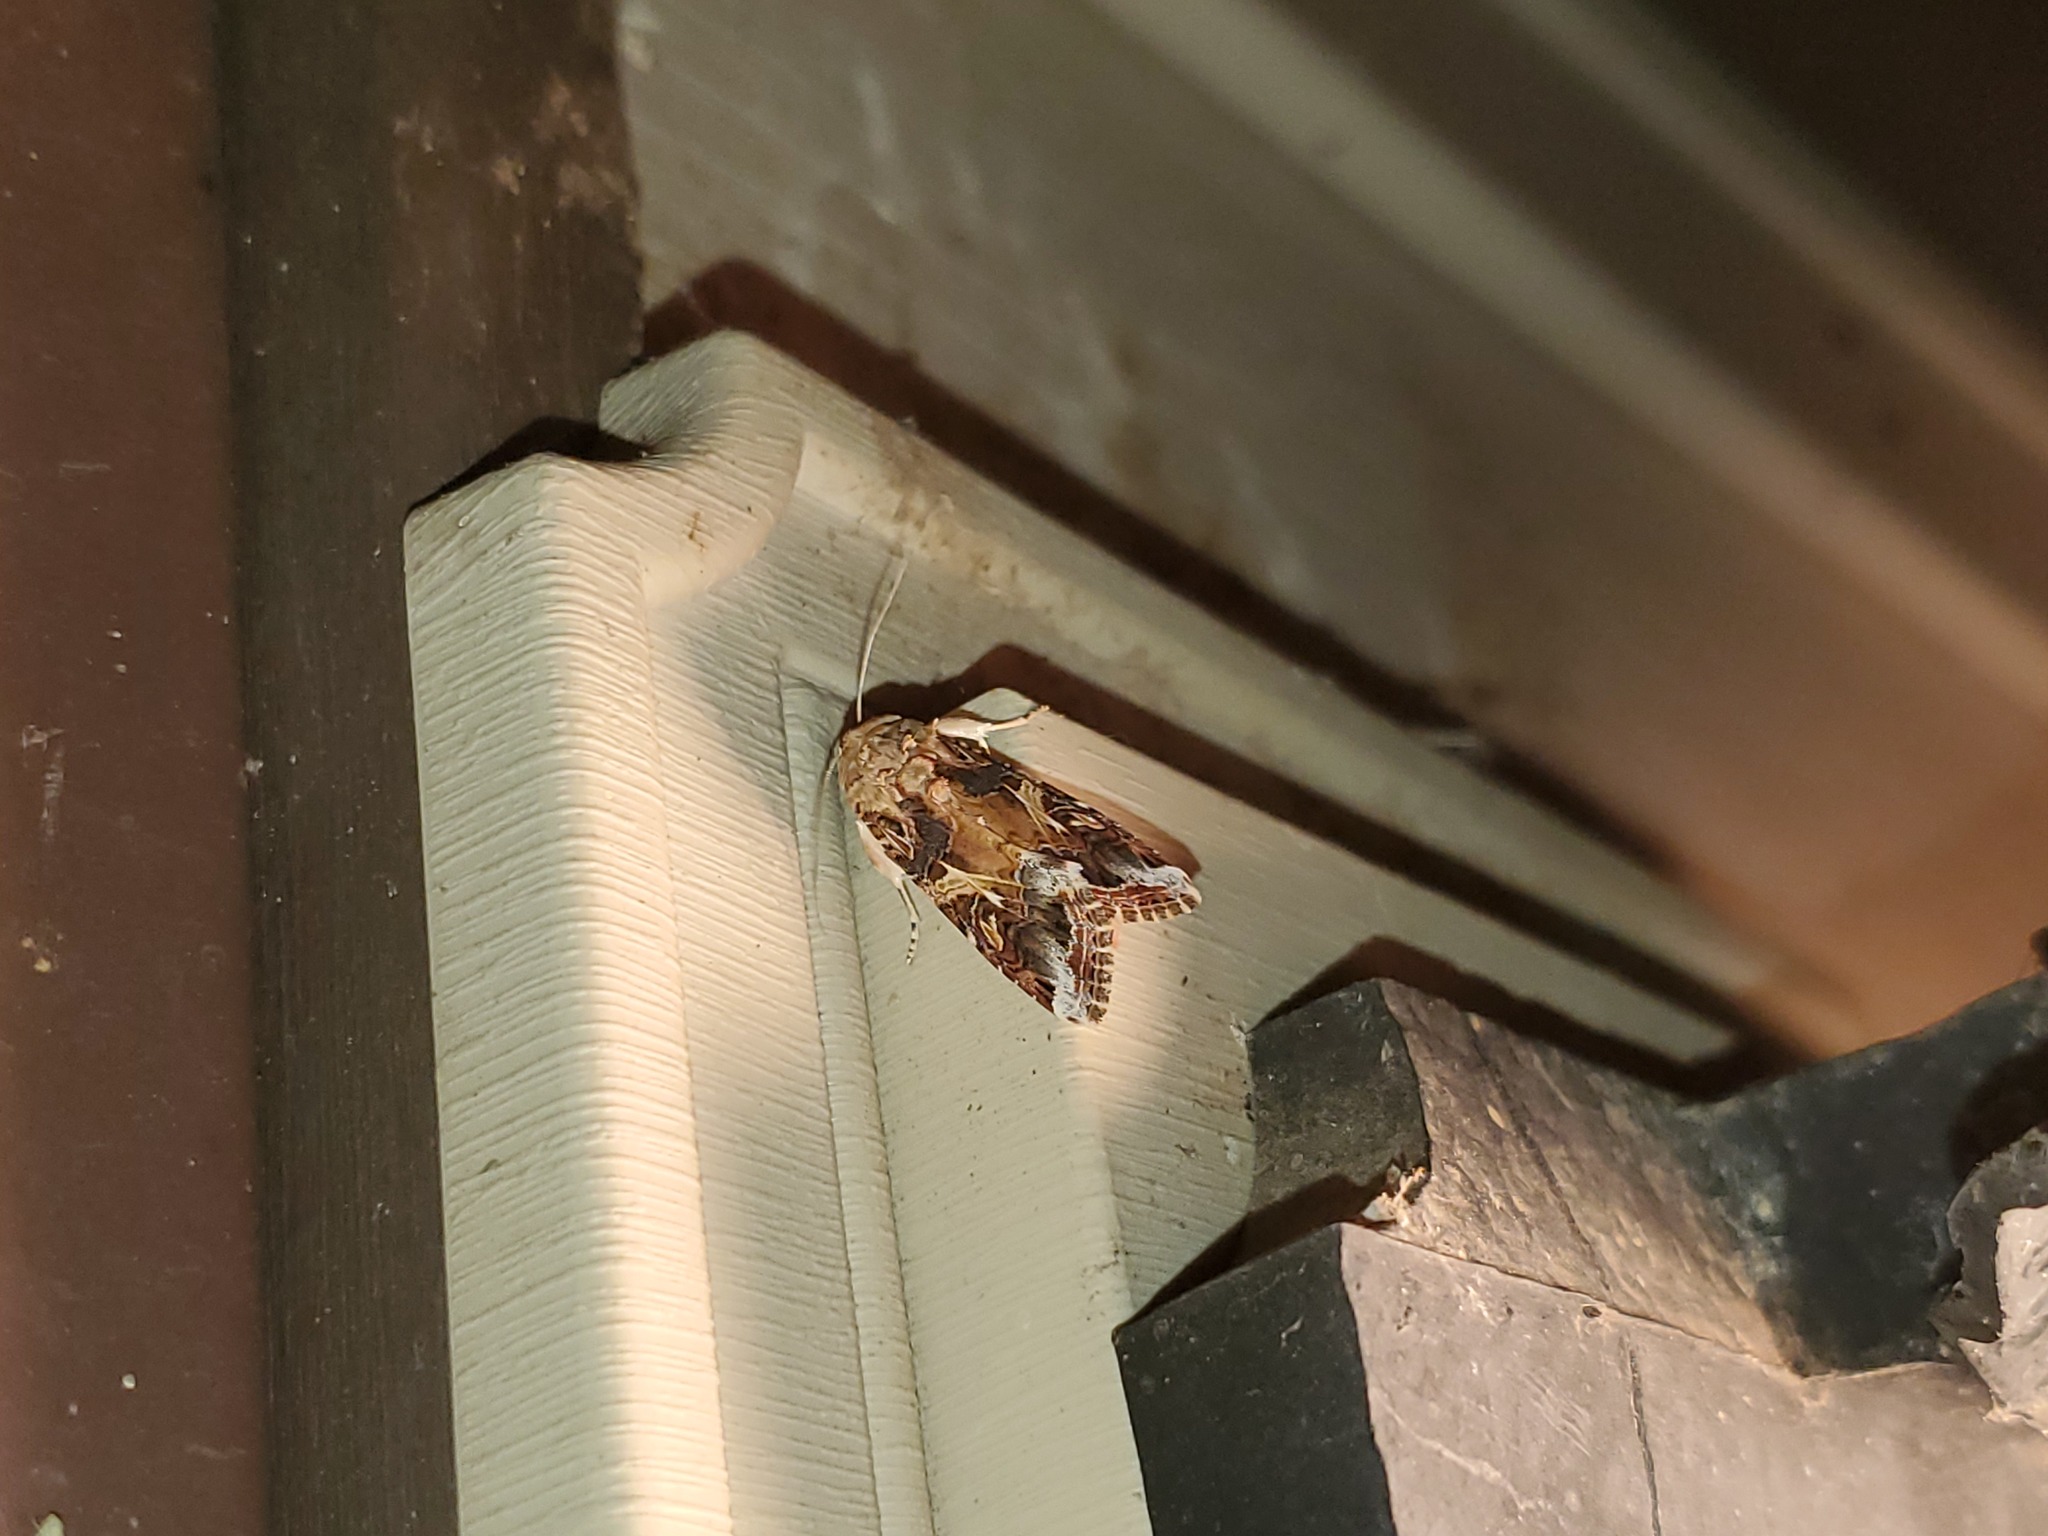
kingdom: Animalia
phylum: Arthropoda
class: Insecta
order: Lepidoptera
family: Noctuidae
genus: Spodoptera
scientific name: Spodoptera ornithogalli
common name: Yellow-striped armyworm
